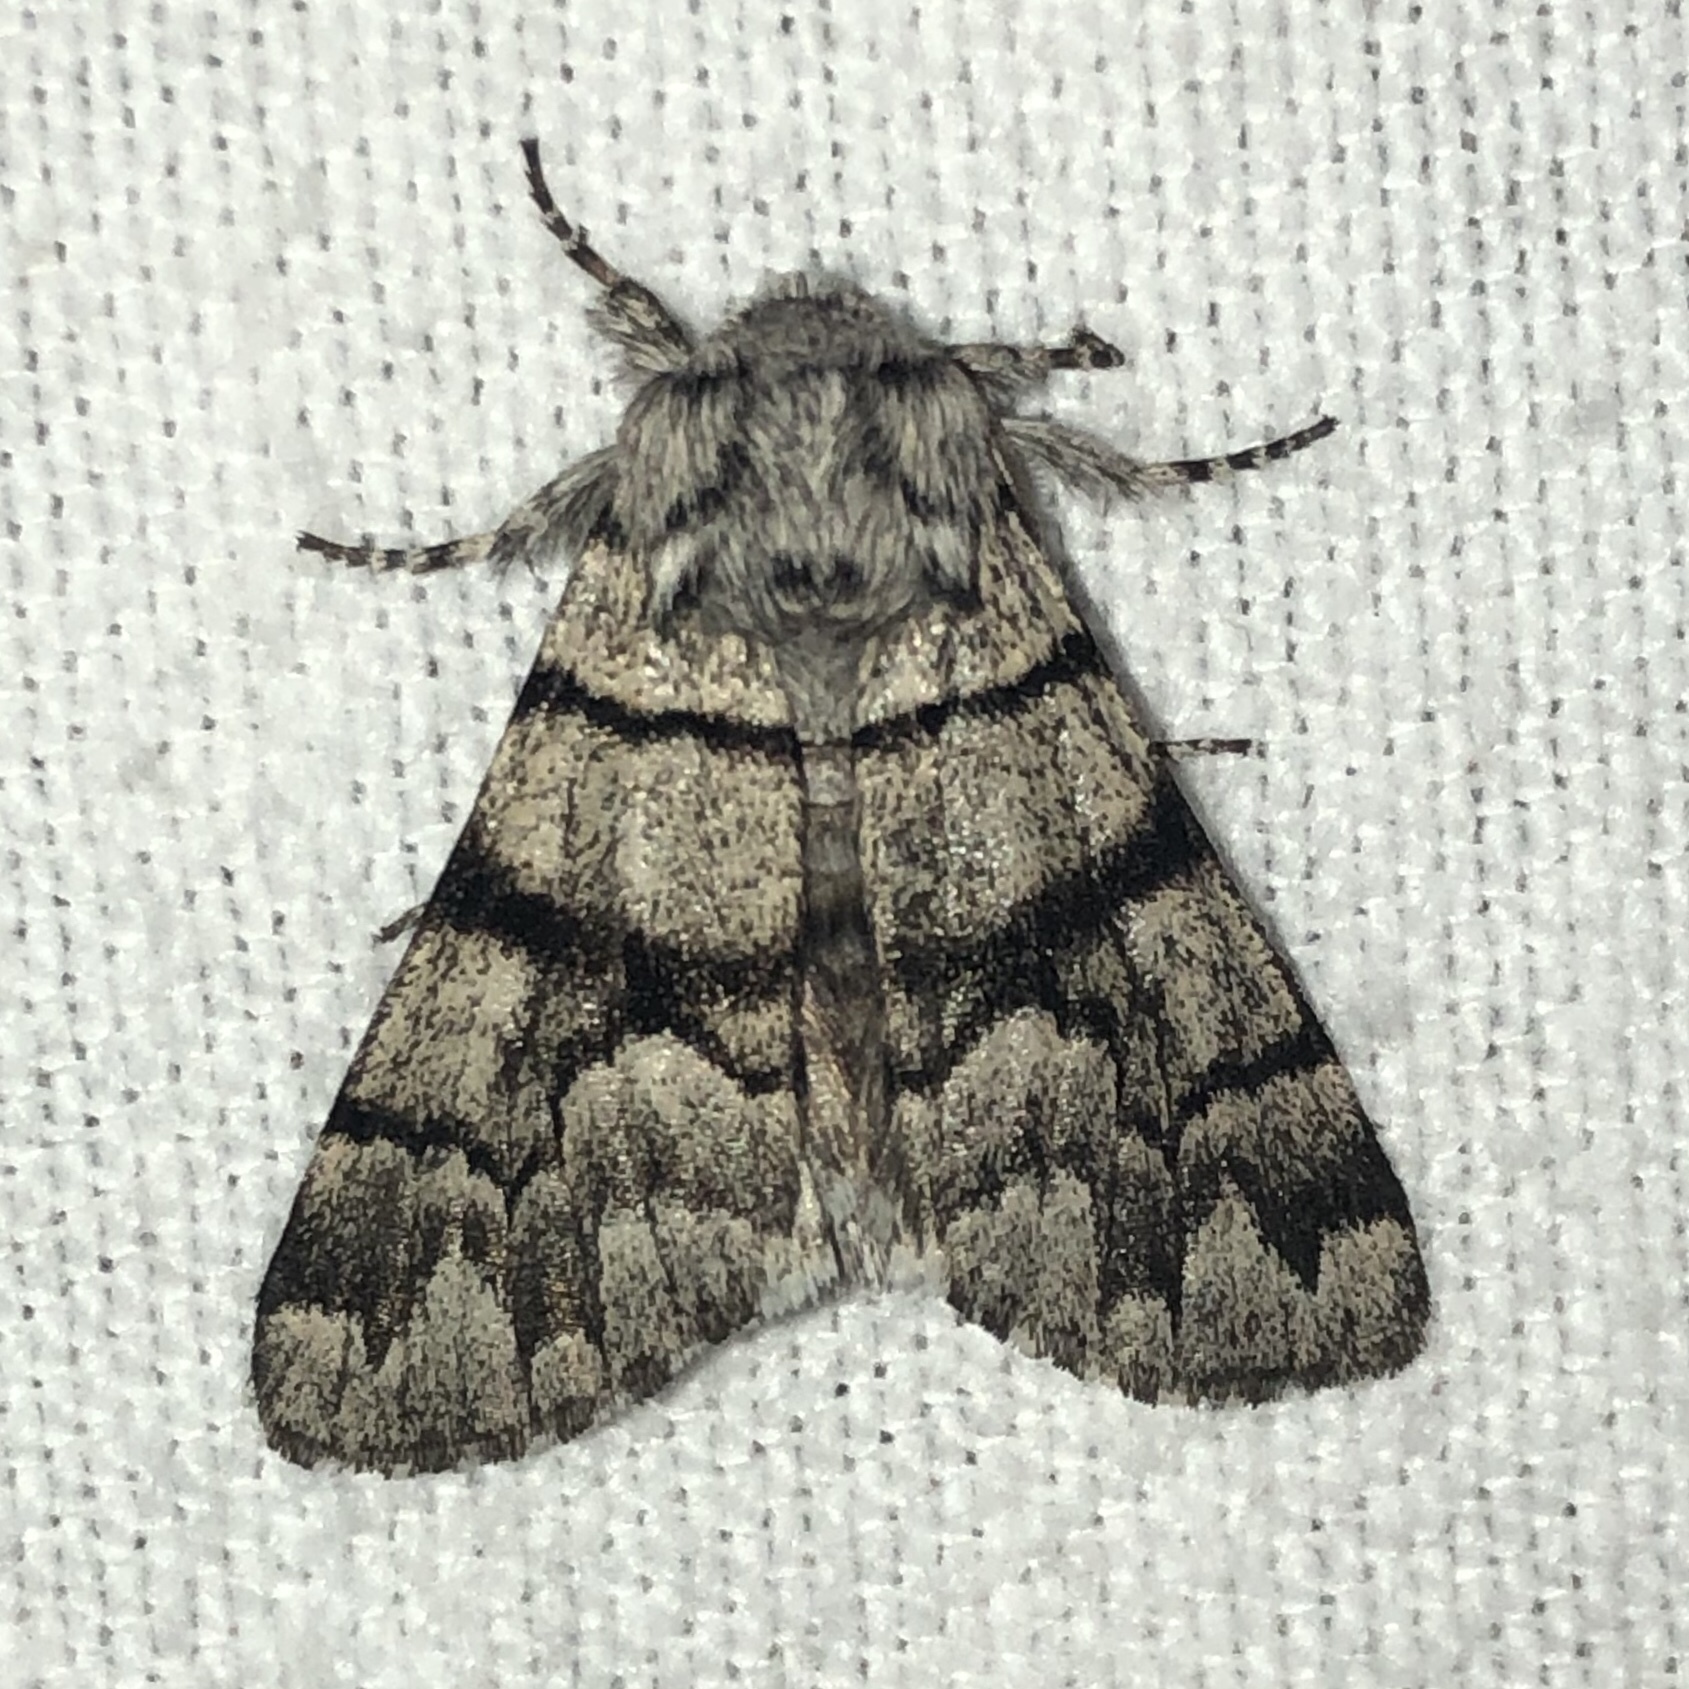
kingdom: Animalia
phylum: Arthropoda
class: Insecta
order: Lepidoptera
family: Noctuidae
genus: Panthea
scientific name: Panthea furcilla
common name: Eastern panthea moth
